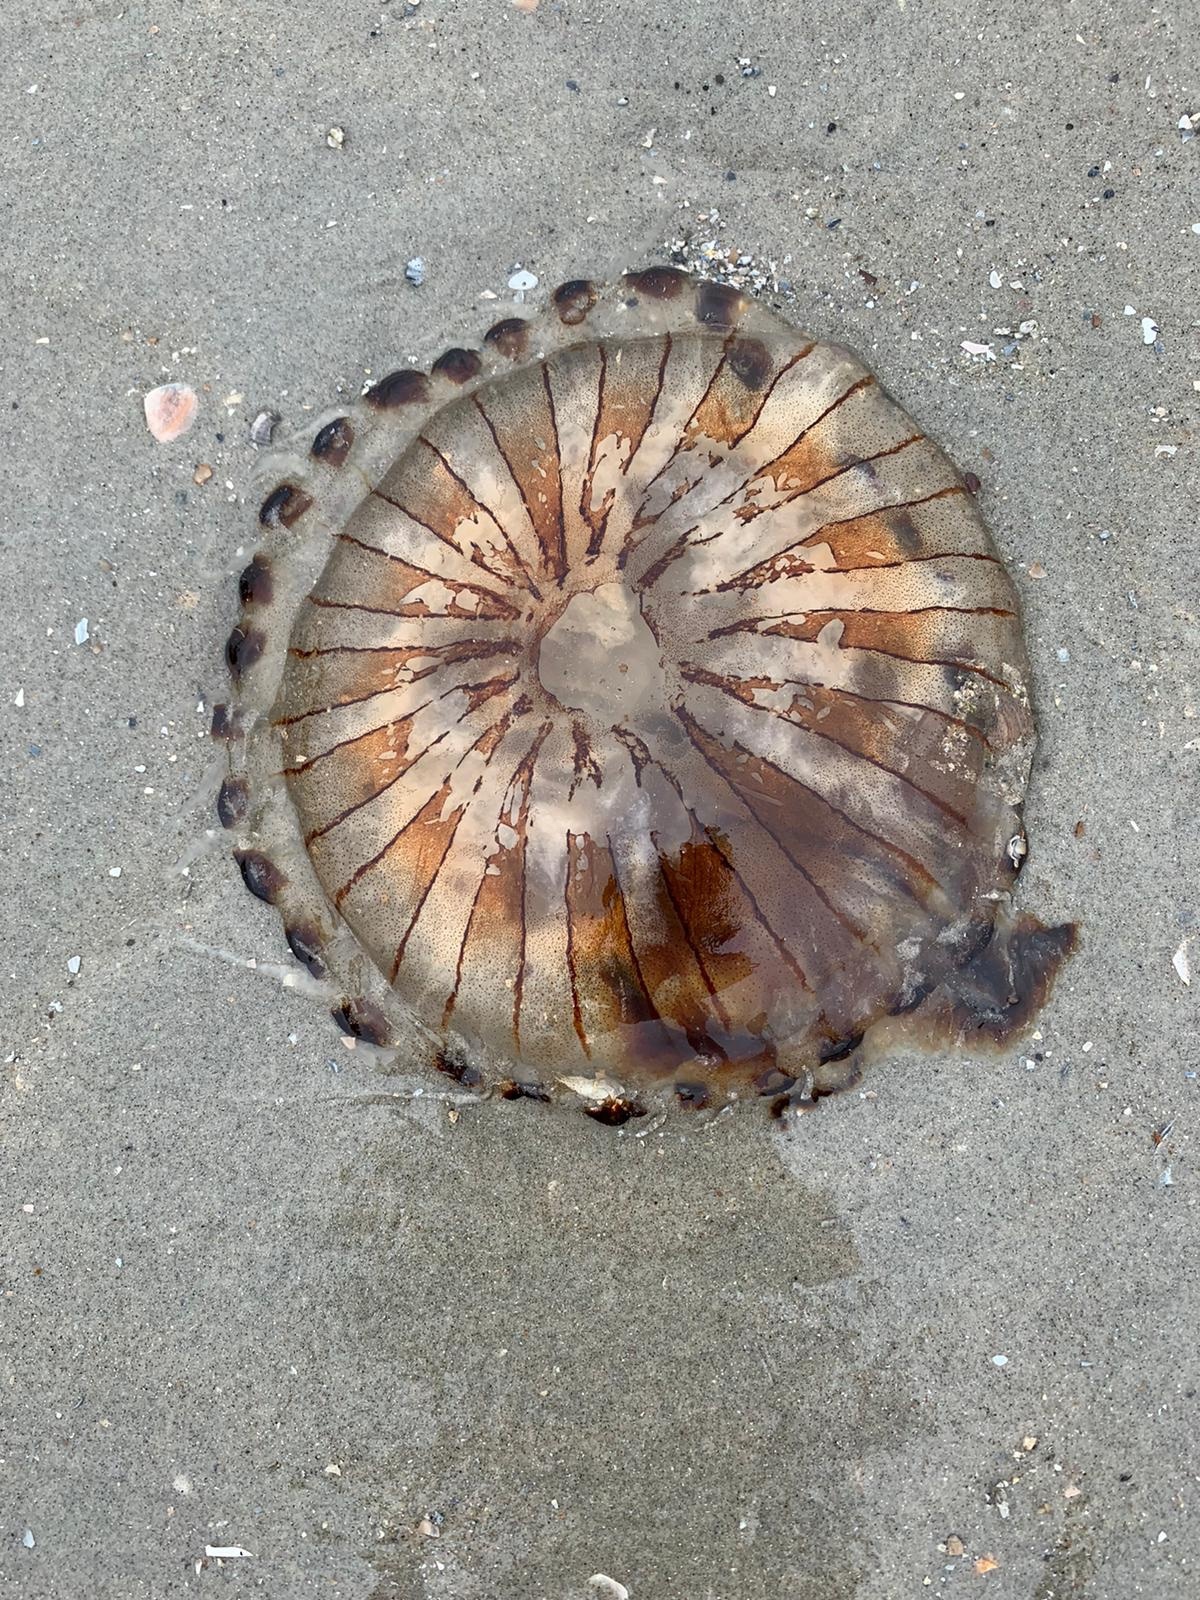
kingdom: Animalia
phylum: Cnidaria
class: Scyphozoa
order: Semaeostomeae
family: Pelagiidae
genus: Chrysaora
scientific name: Chrysaora hysoscella
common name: Compass jellyfish
